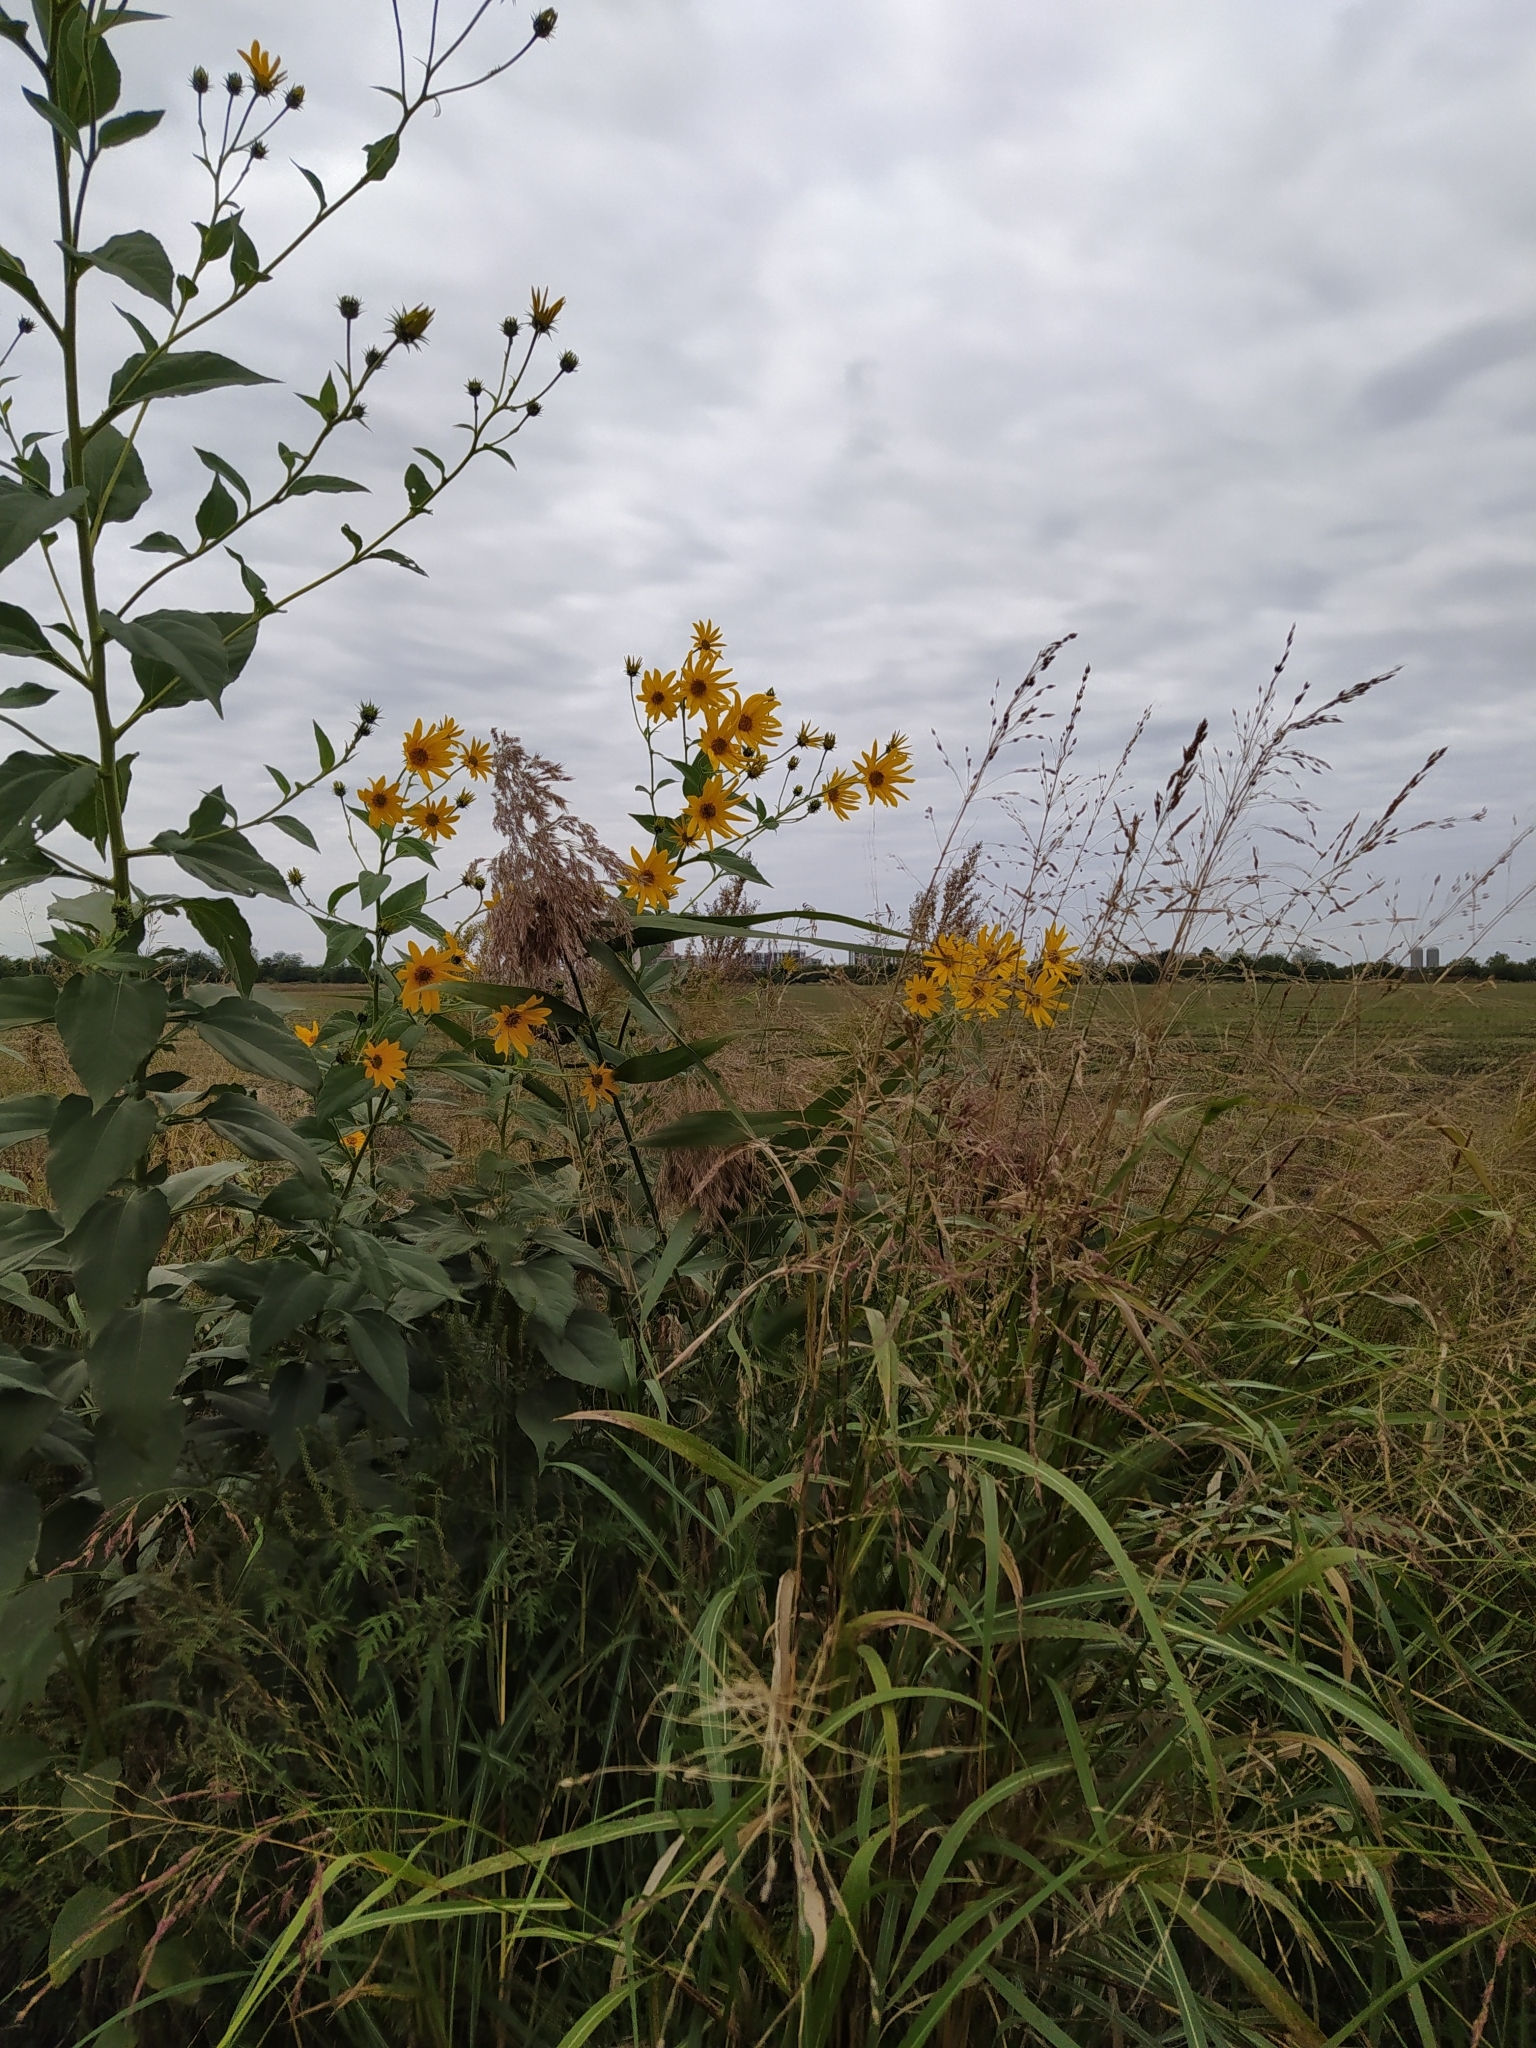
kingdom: Plantae
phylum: Tracheophyta
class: Magnoliopsida
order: Asterales
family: Asteraceae
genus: Helianthus
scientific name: Helianthus tuberosus
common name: Jerusalem artichoke
